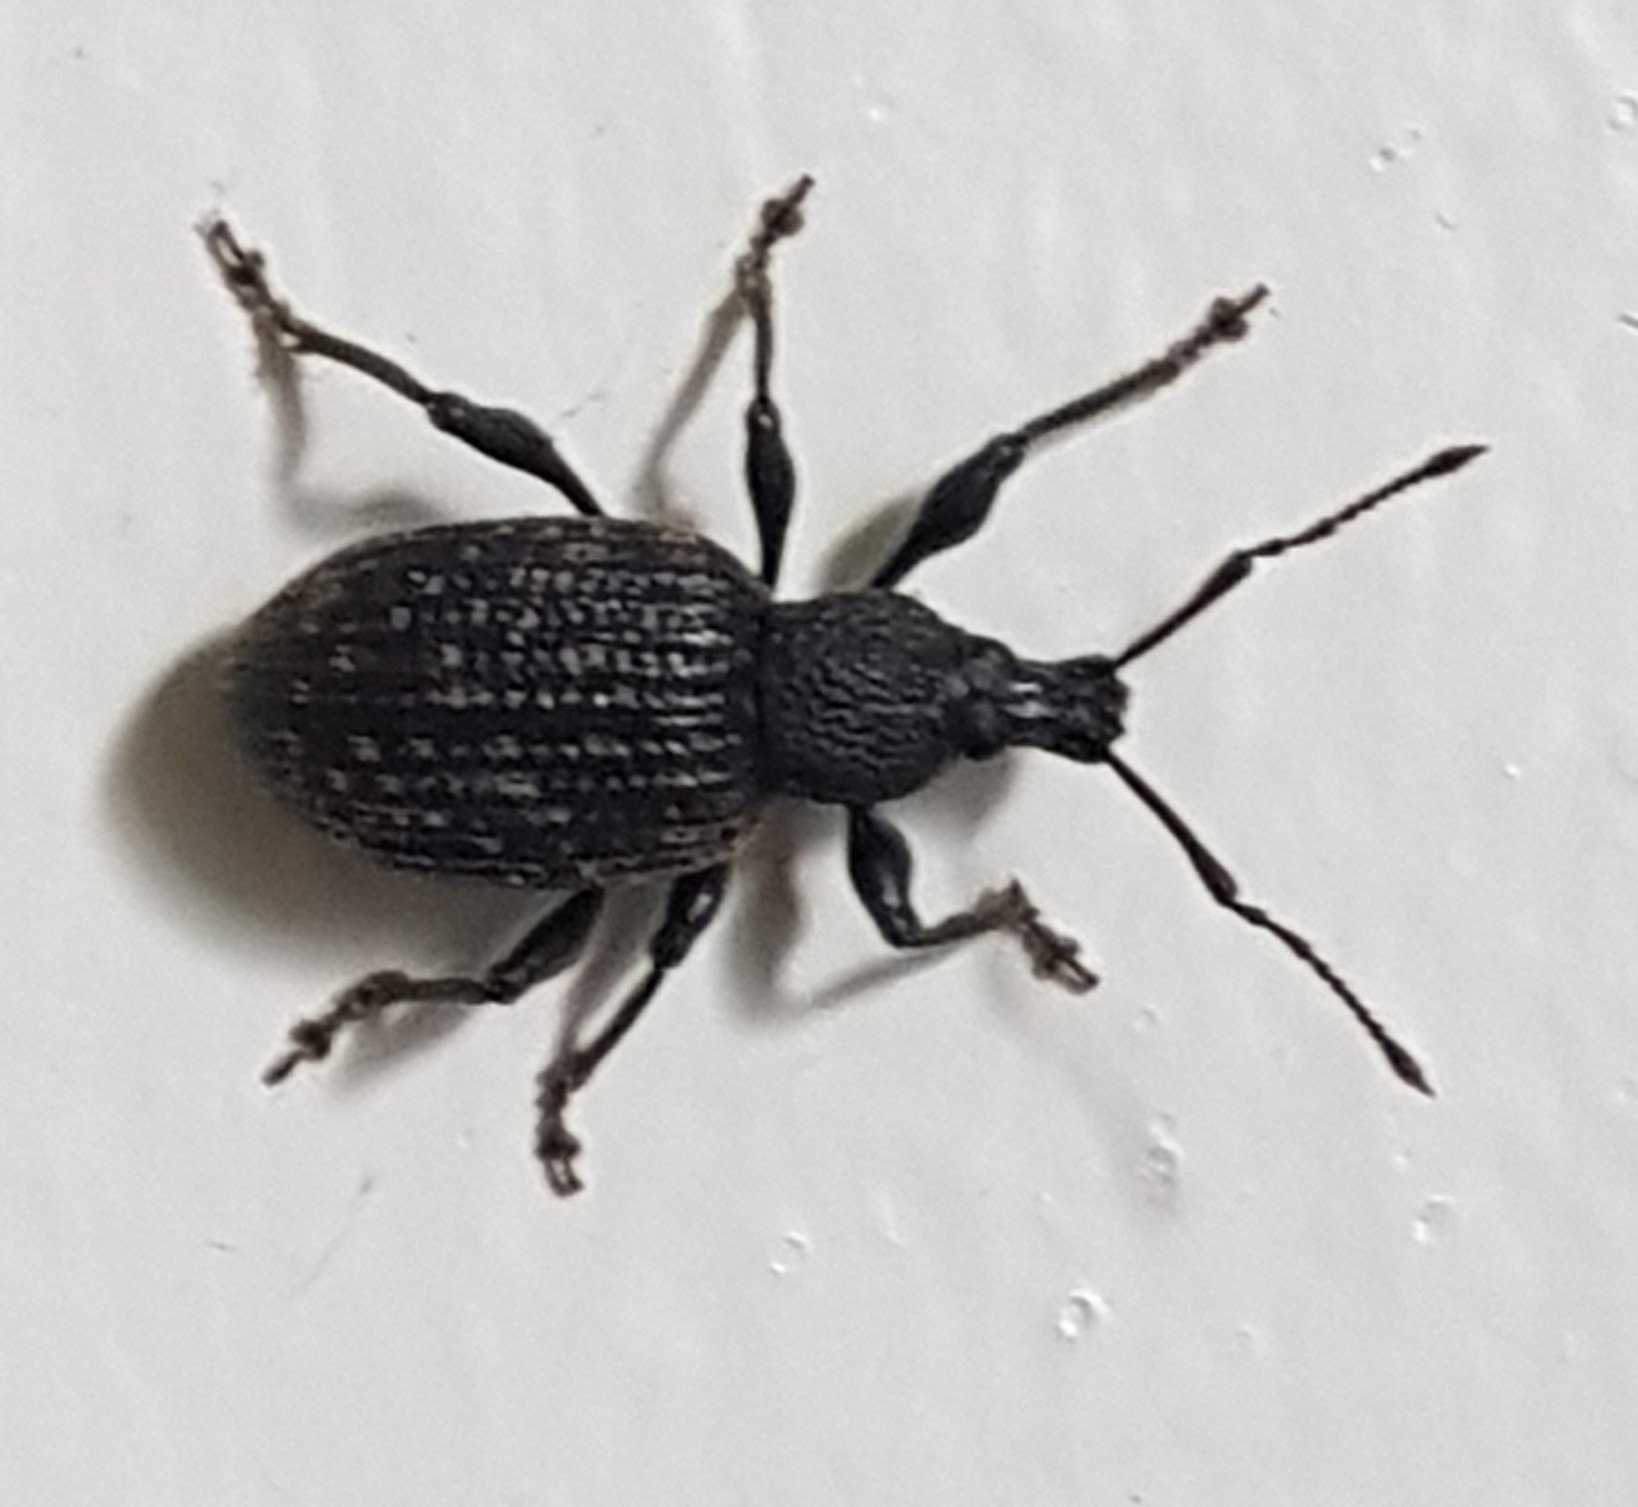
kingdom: Animalia
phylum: Arthropoda
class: Insecta
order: Coleoptera
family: Curculionidae
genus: Otiorhynchus
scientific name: Otiorhynchus sulcatus
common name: Black vine weevil
